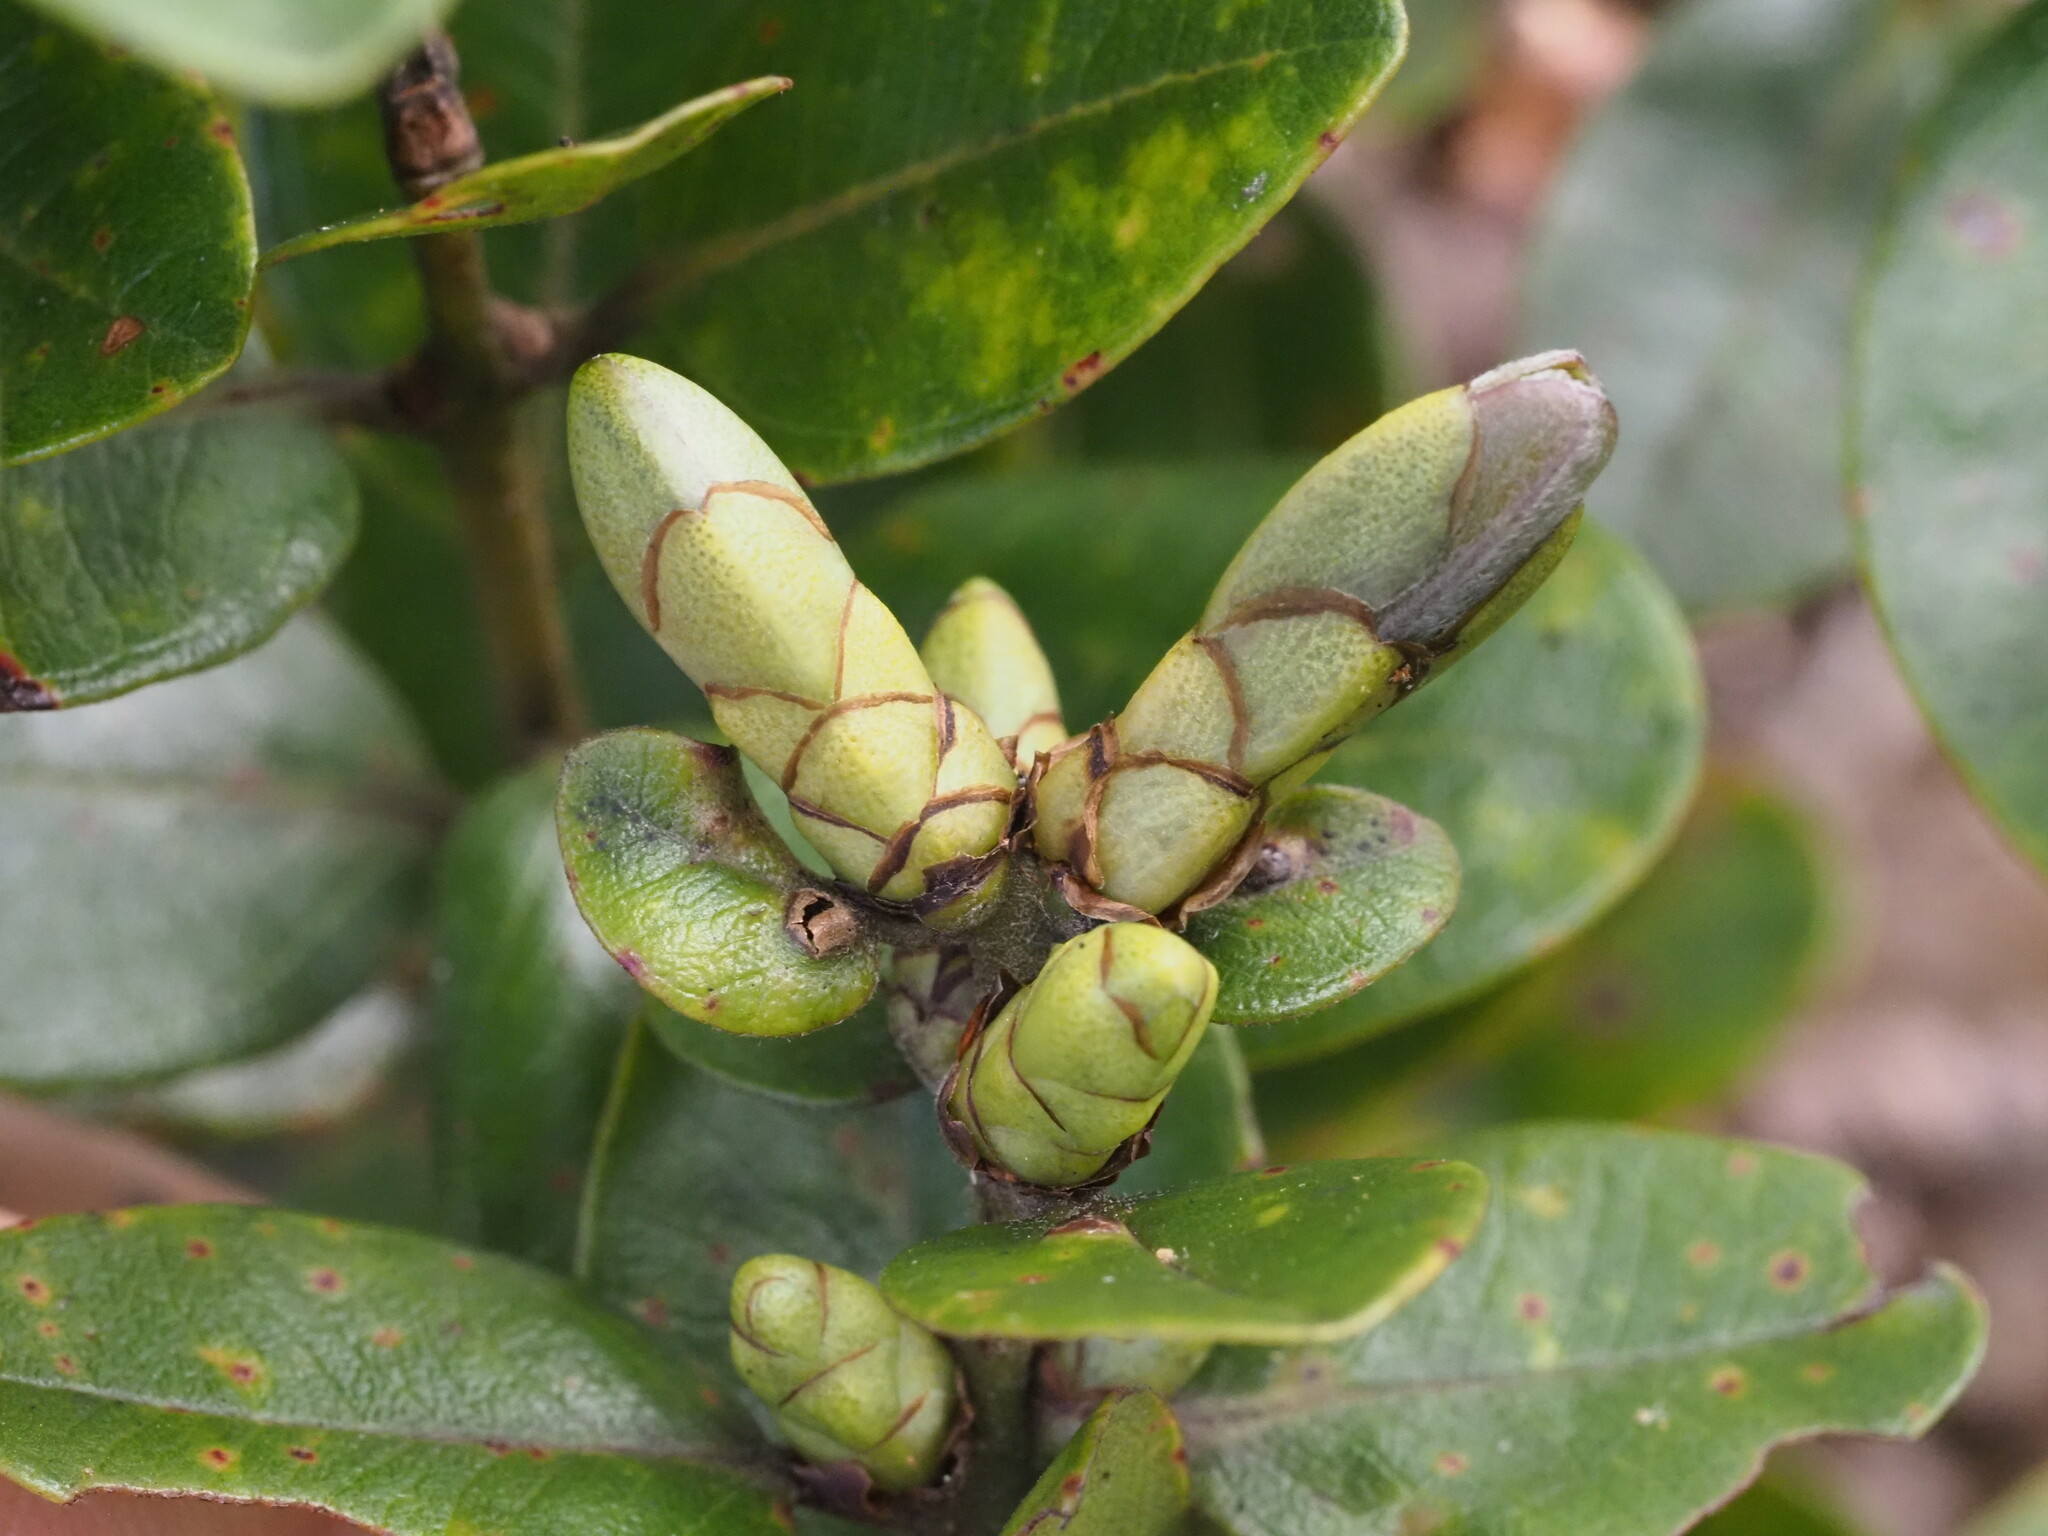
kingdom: Plantae
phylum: Tracheophyta
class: Magnoliopsida
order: Myrtales
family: Myrtaceae
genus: Metrosideros
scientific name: Metrosideros polymorpha
